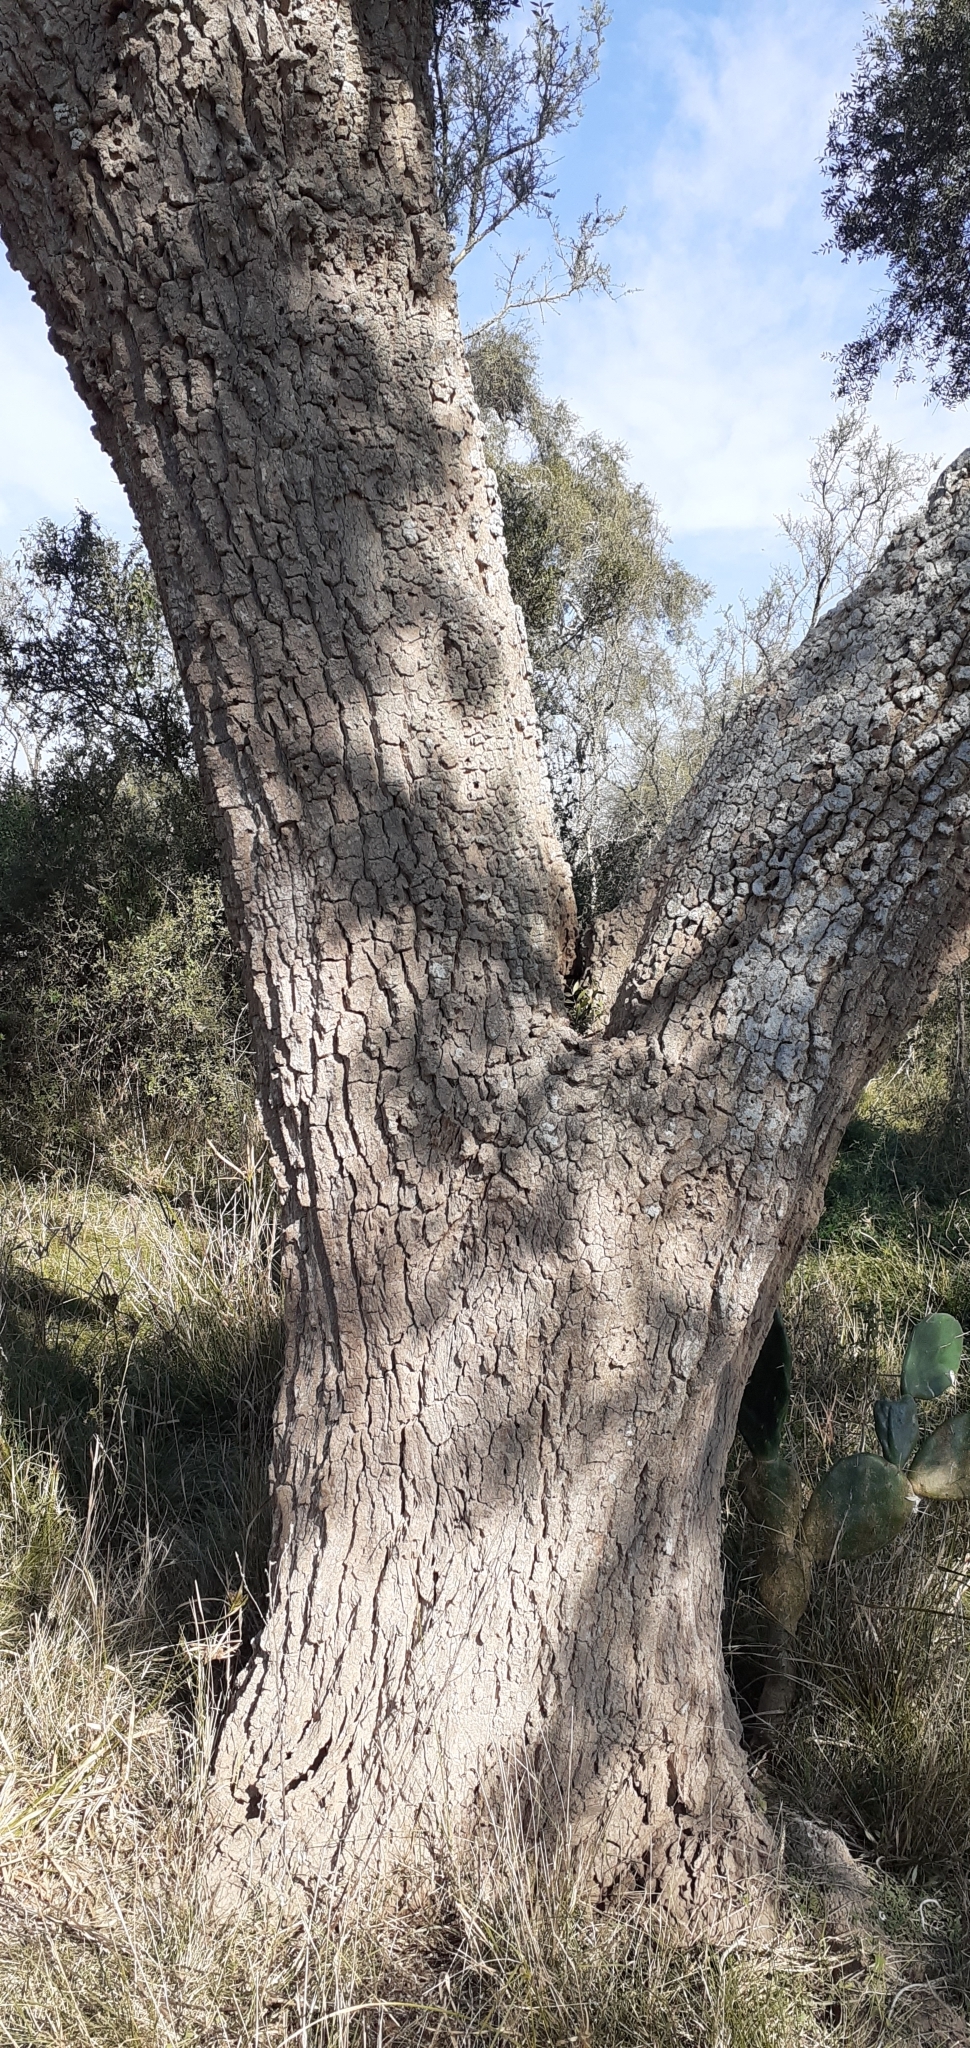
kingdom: Plantae
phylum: Tracheophyta
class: Magnoliopsida
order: Gentianales
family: Apocynaceae
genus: Aspidosperma
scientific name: Aspidosperma quebracho-blanco
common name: White quebracho
